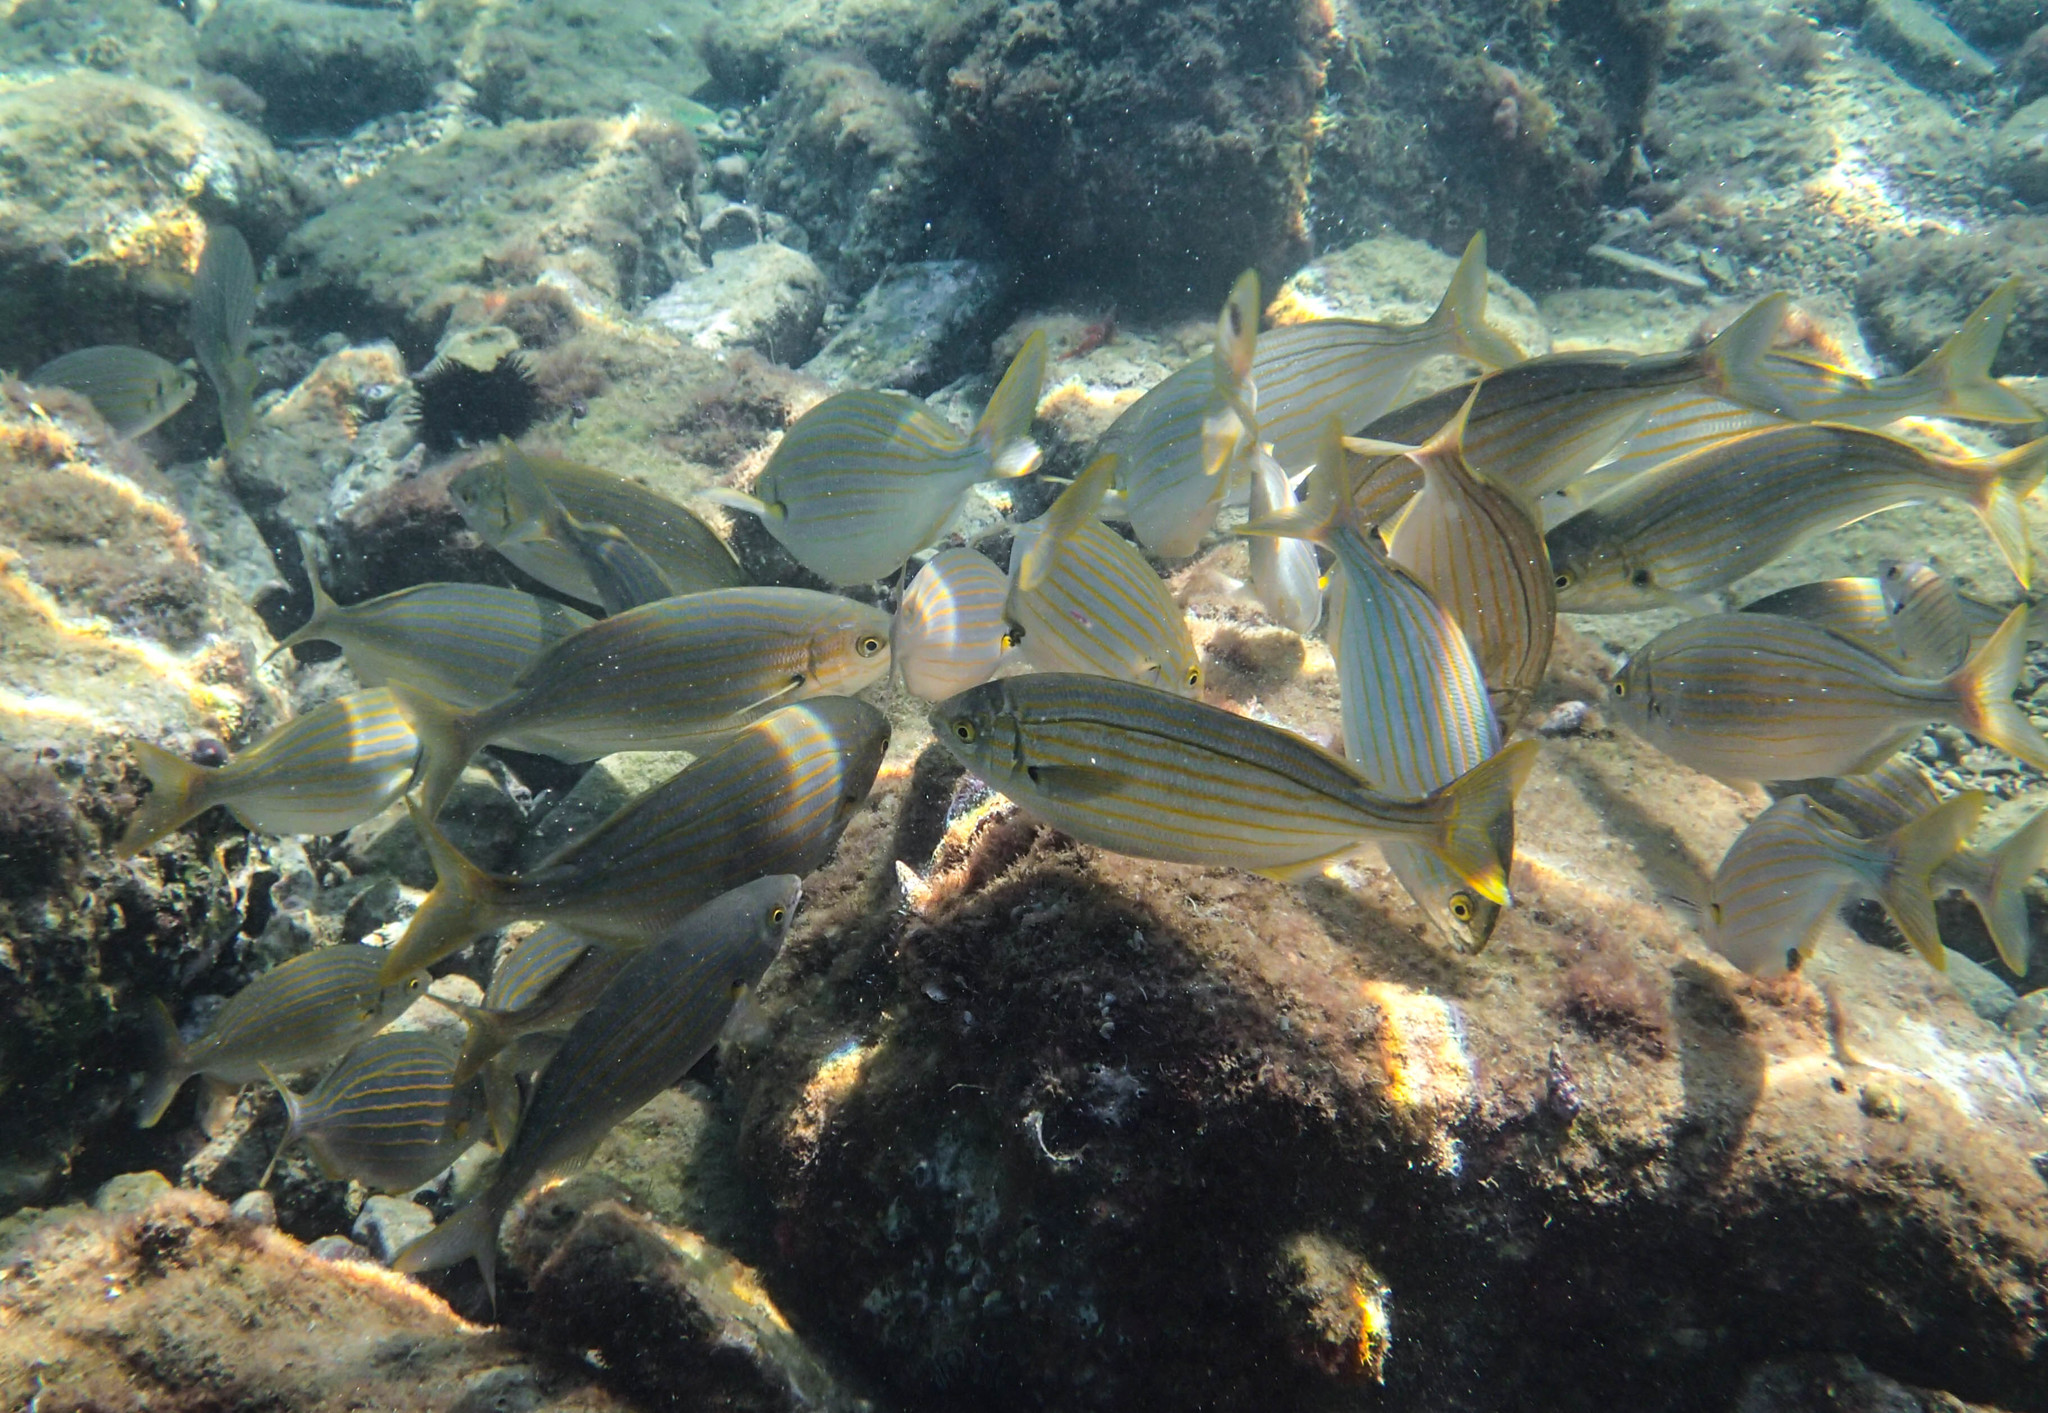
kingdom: Animalia
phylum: Chordata
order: Perciformes
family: Sparidae
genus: Sarpa
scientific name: Sarpa salpa
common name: Salema
